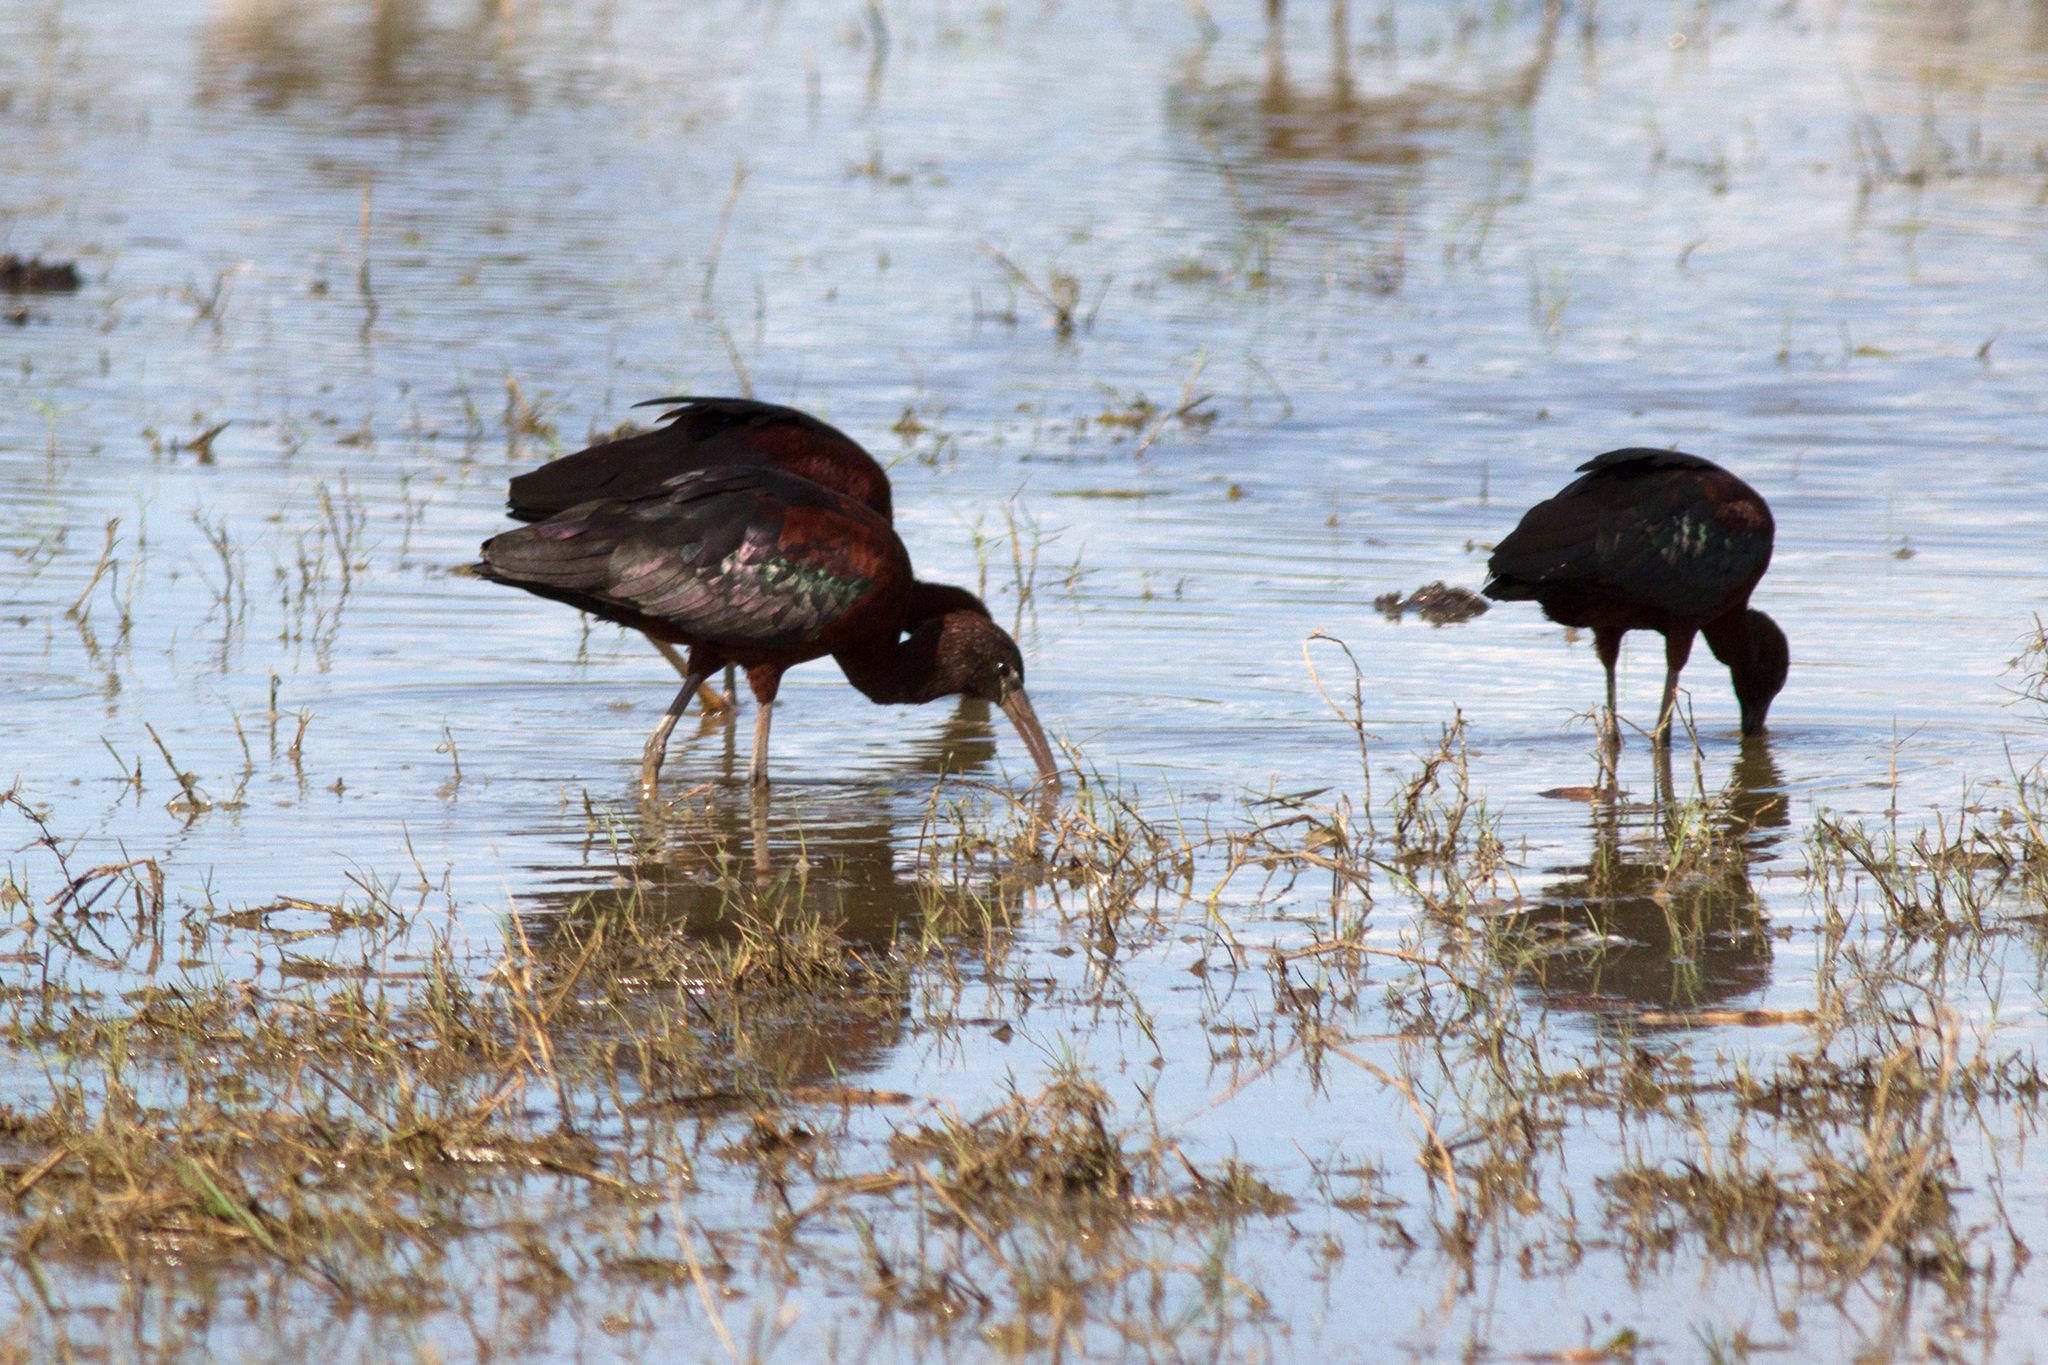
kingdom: Animalia
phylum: Chordata
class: Aves
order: Pelecaniformes
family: Threskiornithidae
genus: Plegadis
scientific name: Plegadis falcinellus
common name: Glossy ibis
